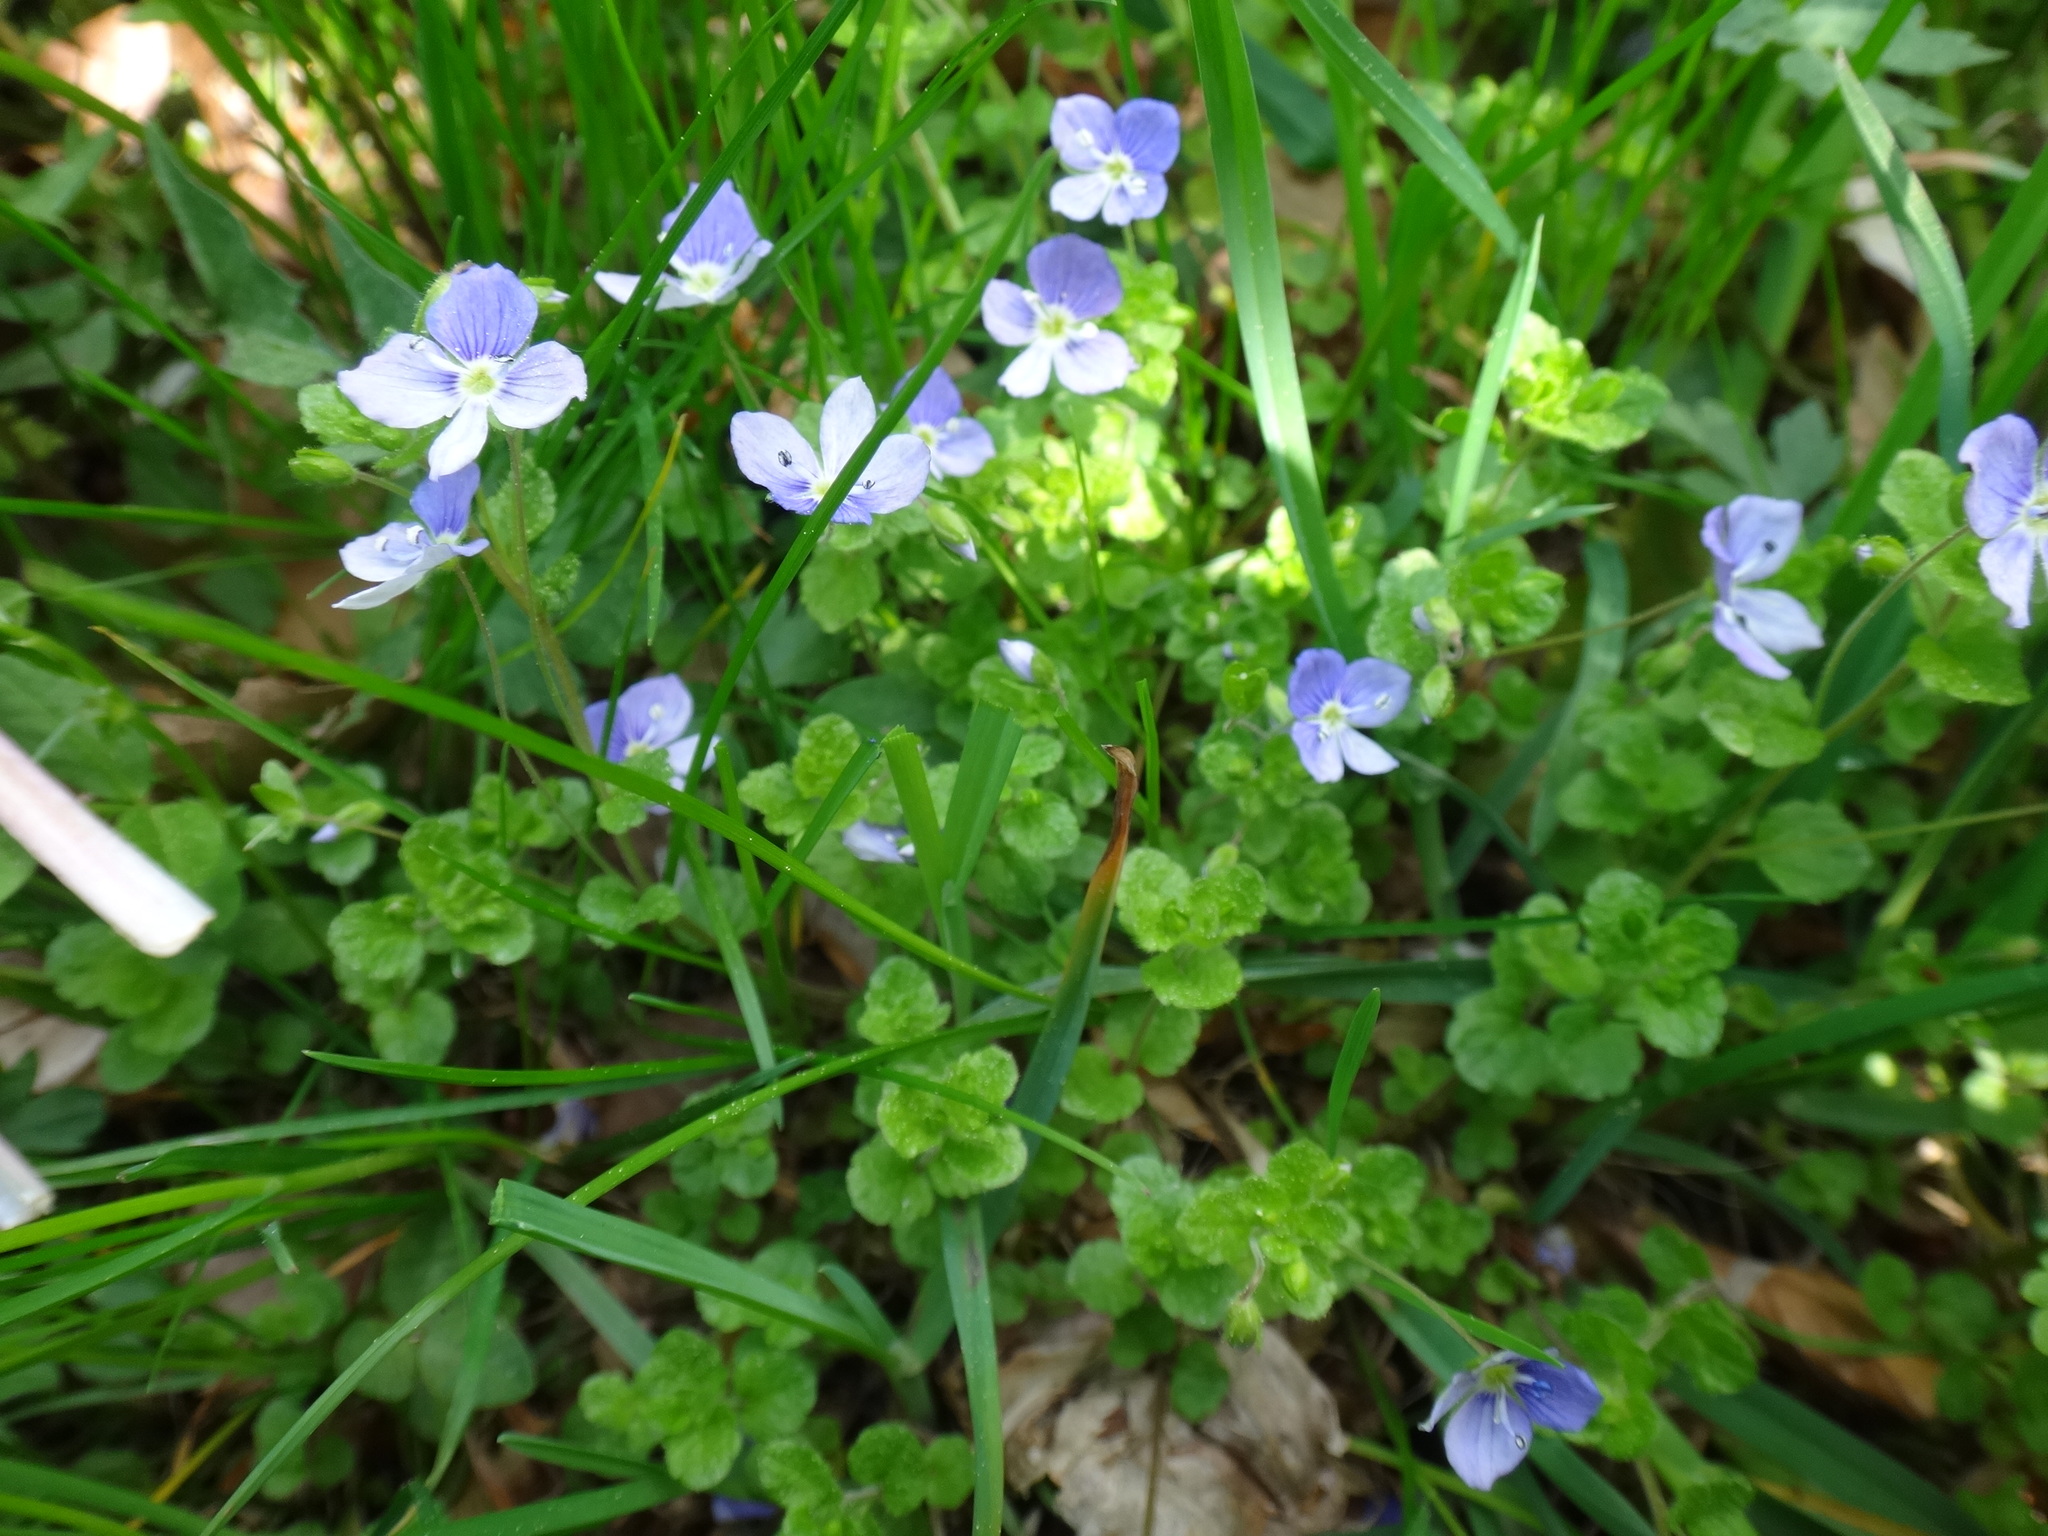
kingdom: Plantae
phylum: Tracheophyta
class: Magnoliopsida
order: Lamiales
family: Plantaginaceae
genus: Veronica
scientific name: Veronica filiformis
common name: Slender speedwell
